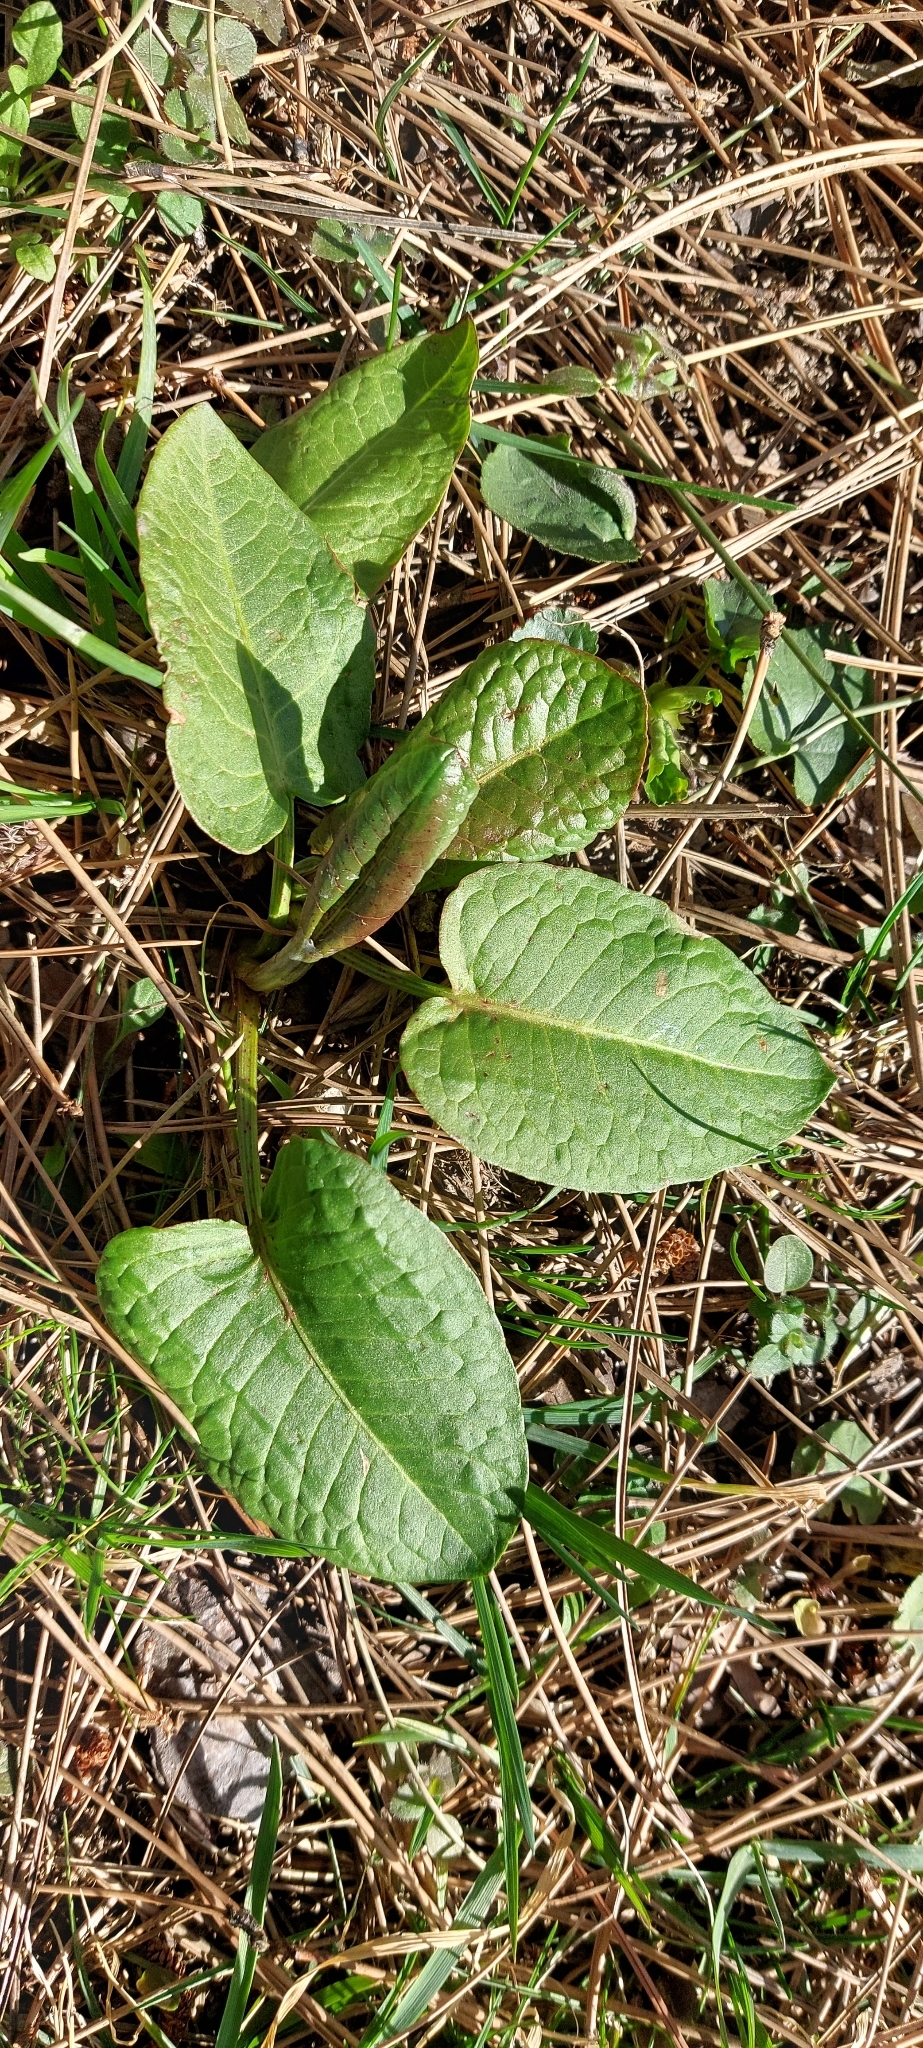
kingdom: Plantae
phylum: Tracheophyta
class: Magnoliopsida
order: Caryophyllales
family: Polygonaceae
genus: Rumex
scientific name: Rumex obtusifolius
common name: Bitter dock
